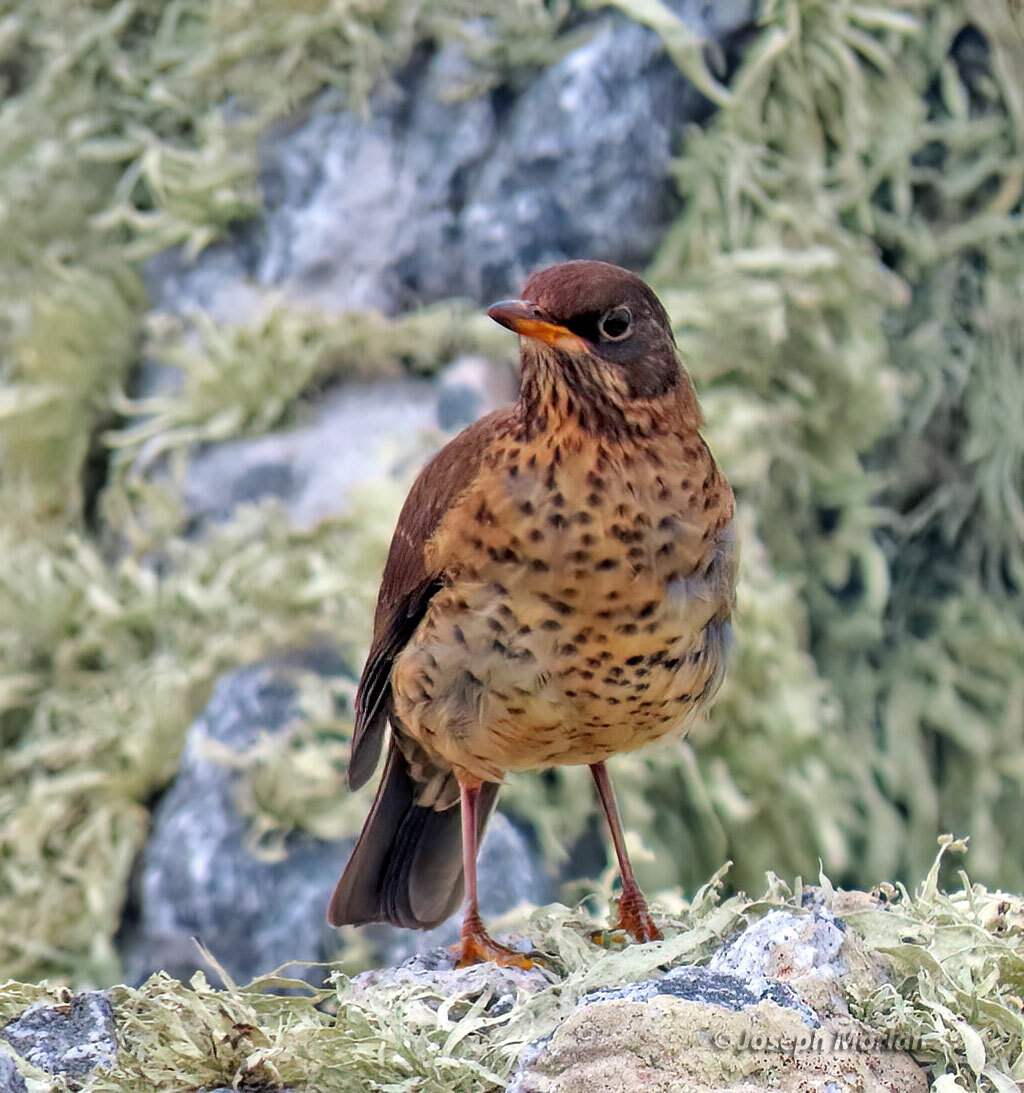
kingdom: Animalia
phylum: Chordata
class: Aves
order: Passeriformes
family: Turdidae
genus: Turdus
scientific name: Turdus falcklandii
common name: Austral thrush
